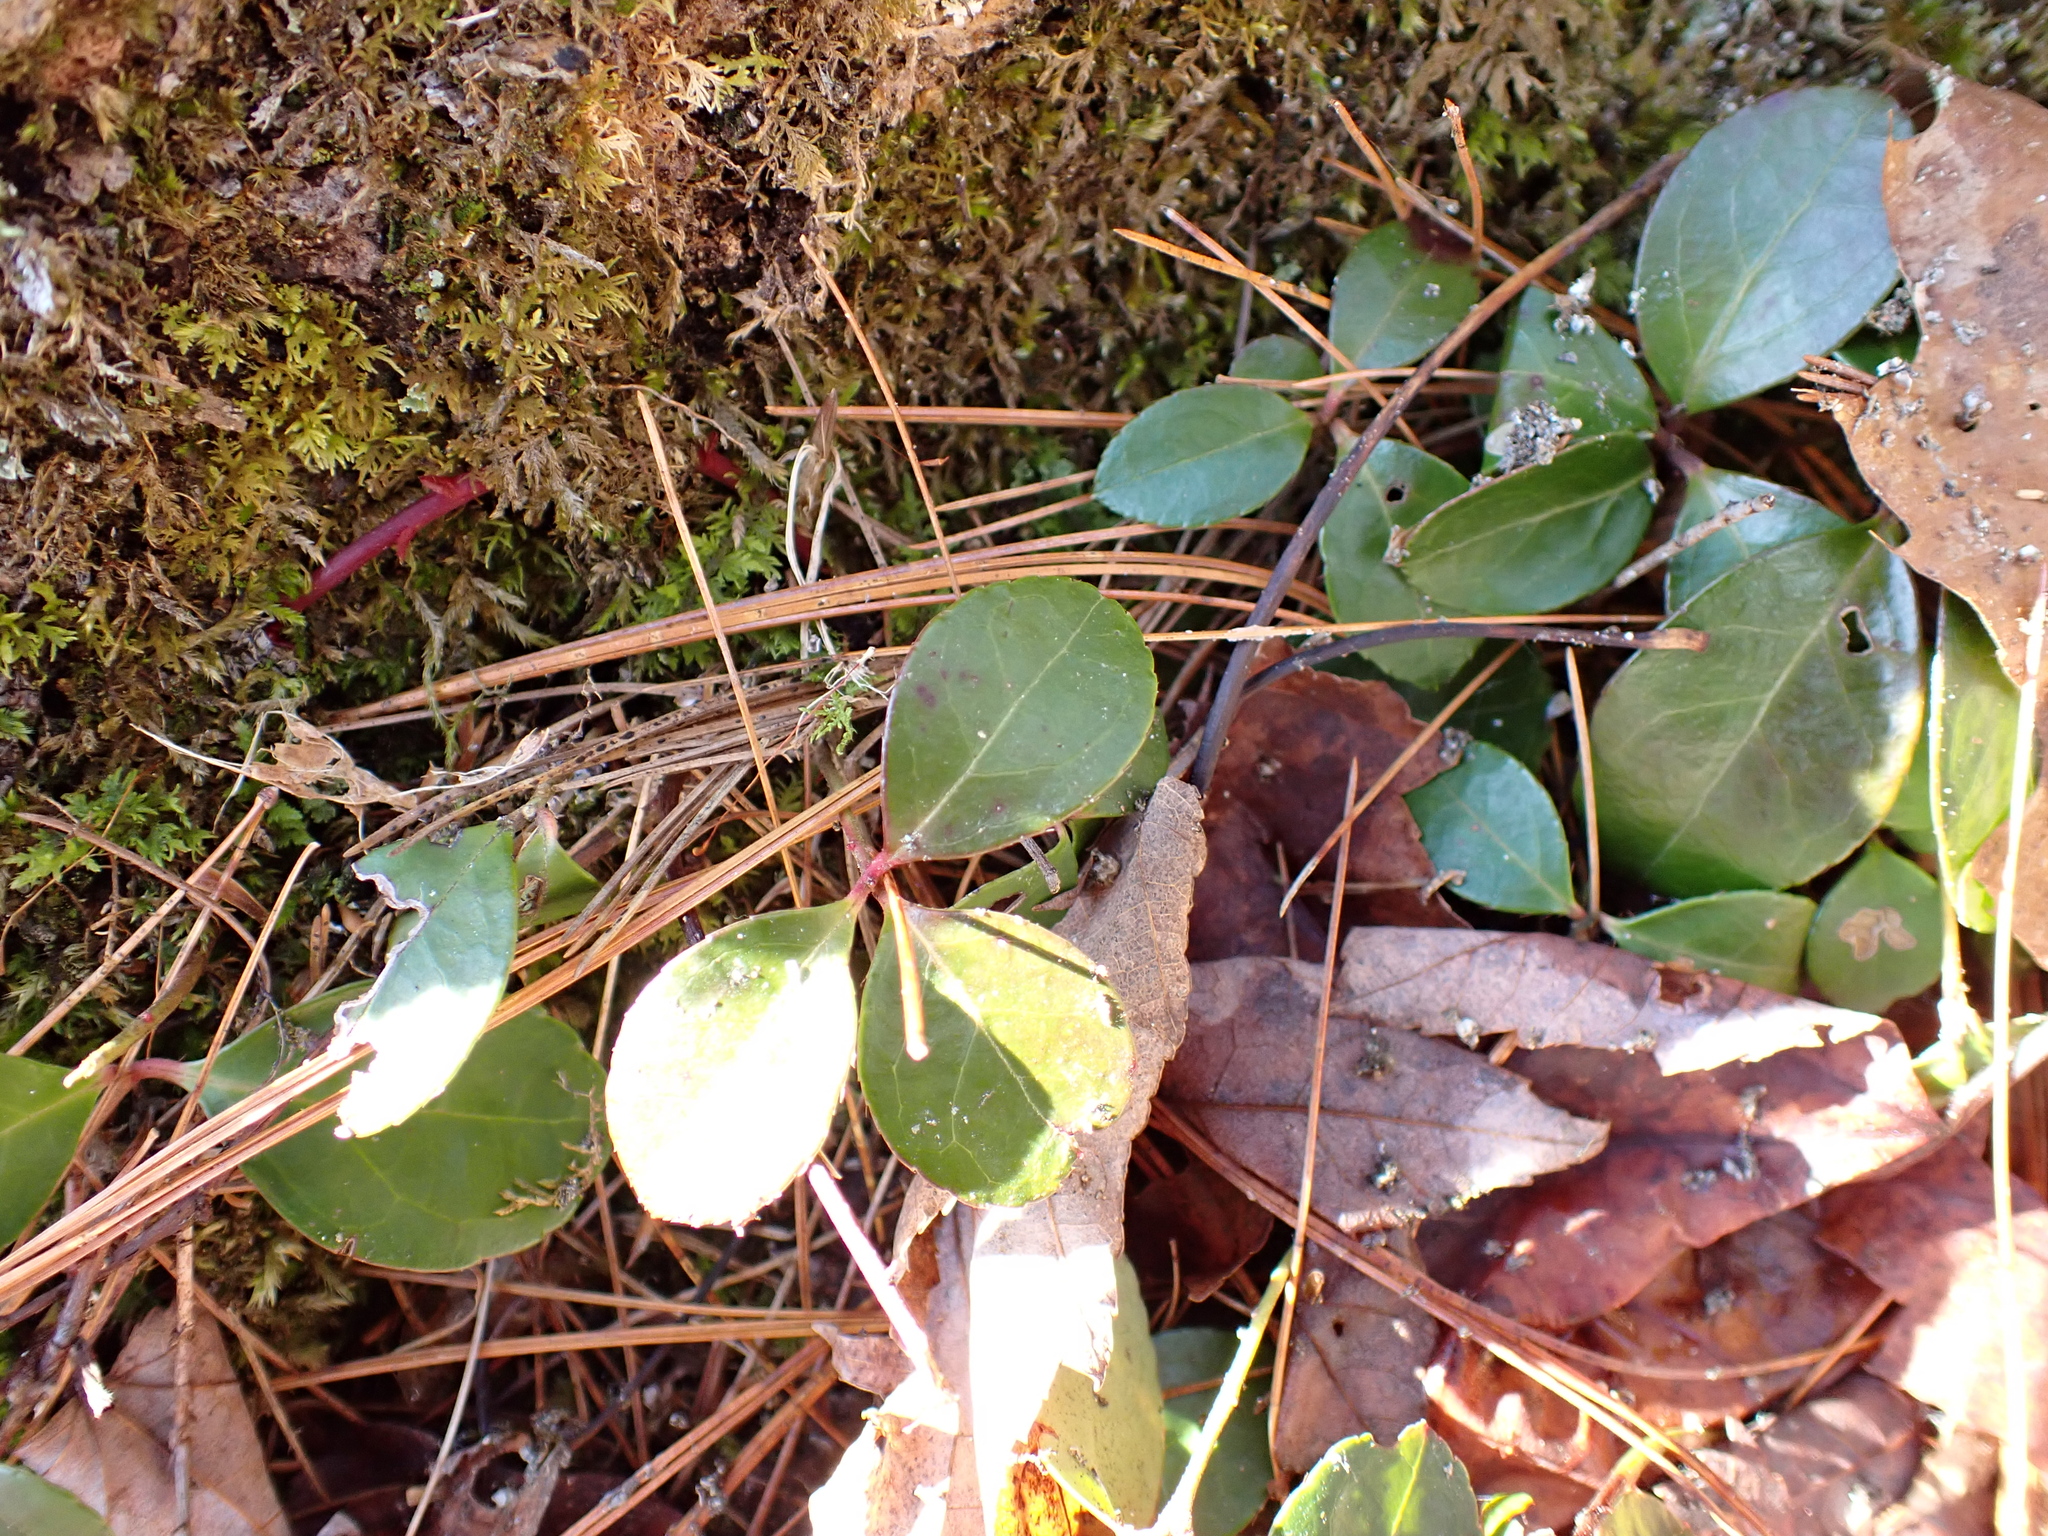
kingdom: Plantae
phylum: Tracheophyta
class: Magnoliopsida
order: Ericales
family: Ericaceae
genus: Gaultheria
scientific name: Gaultheria procumbens
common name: Checkerberry
